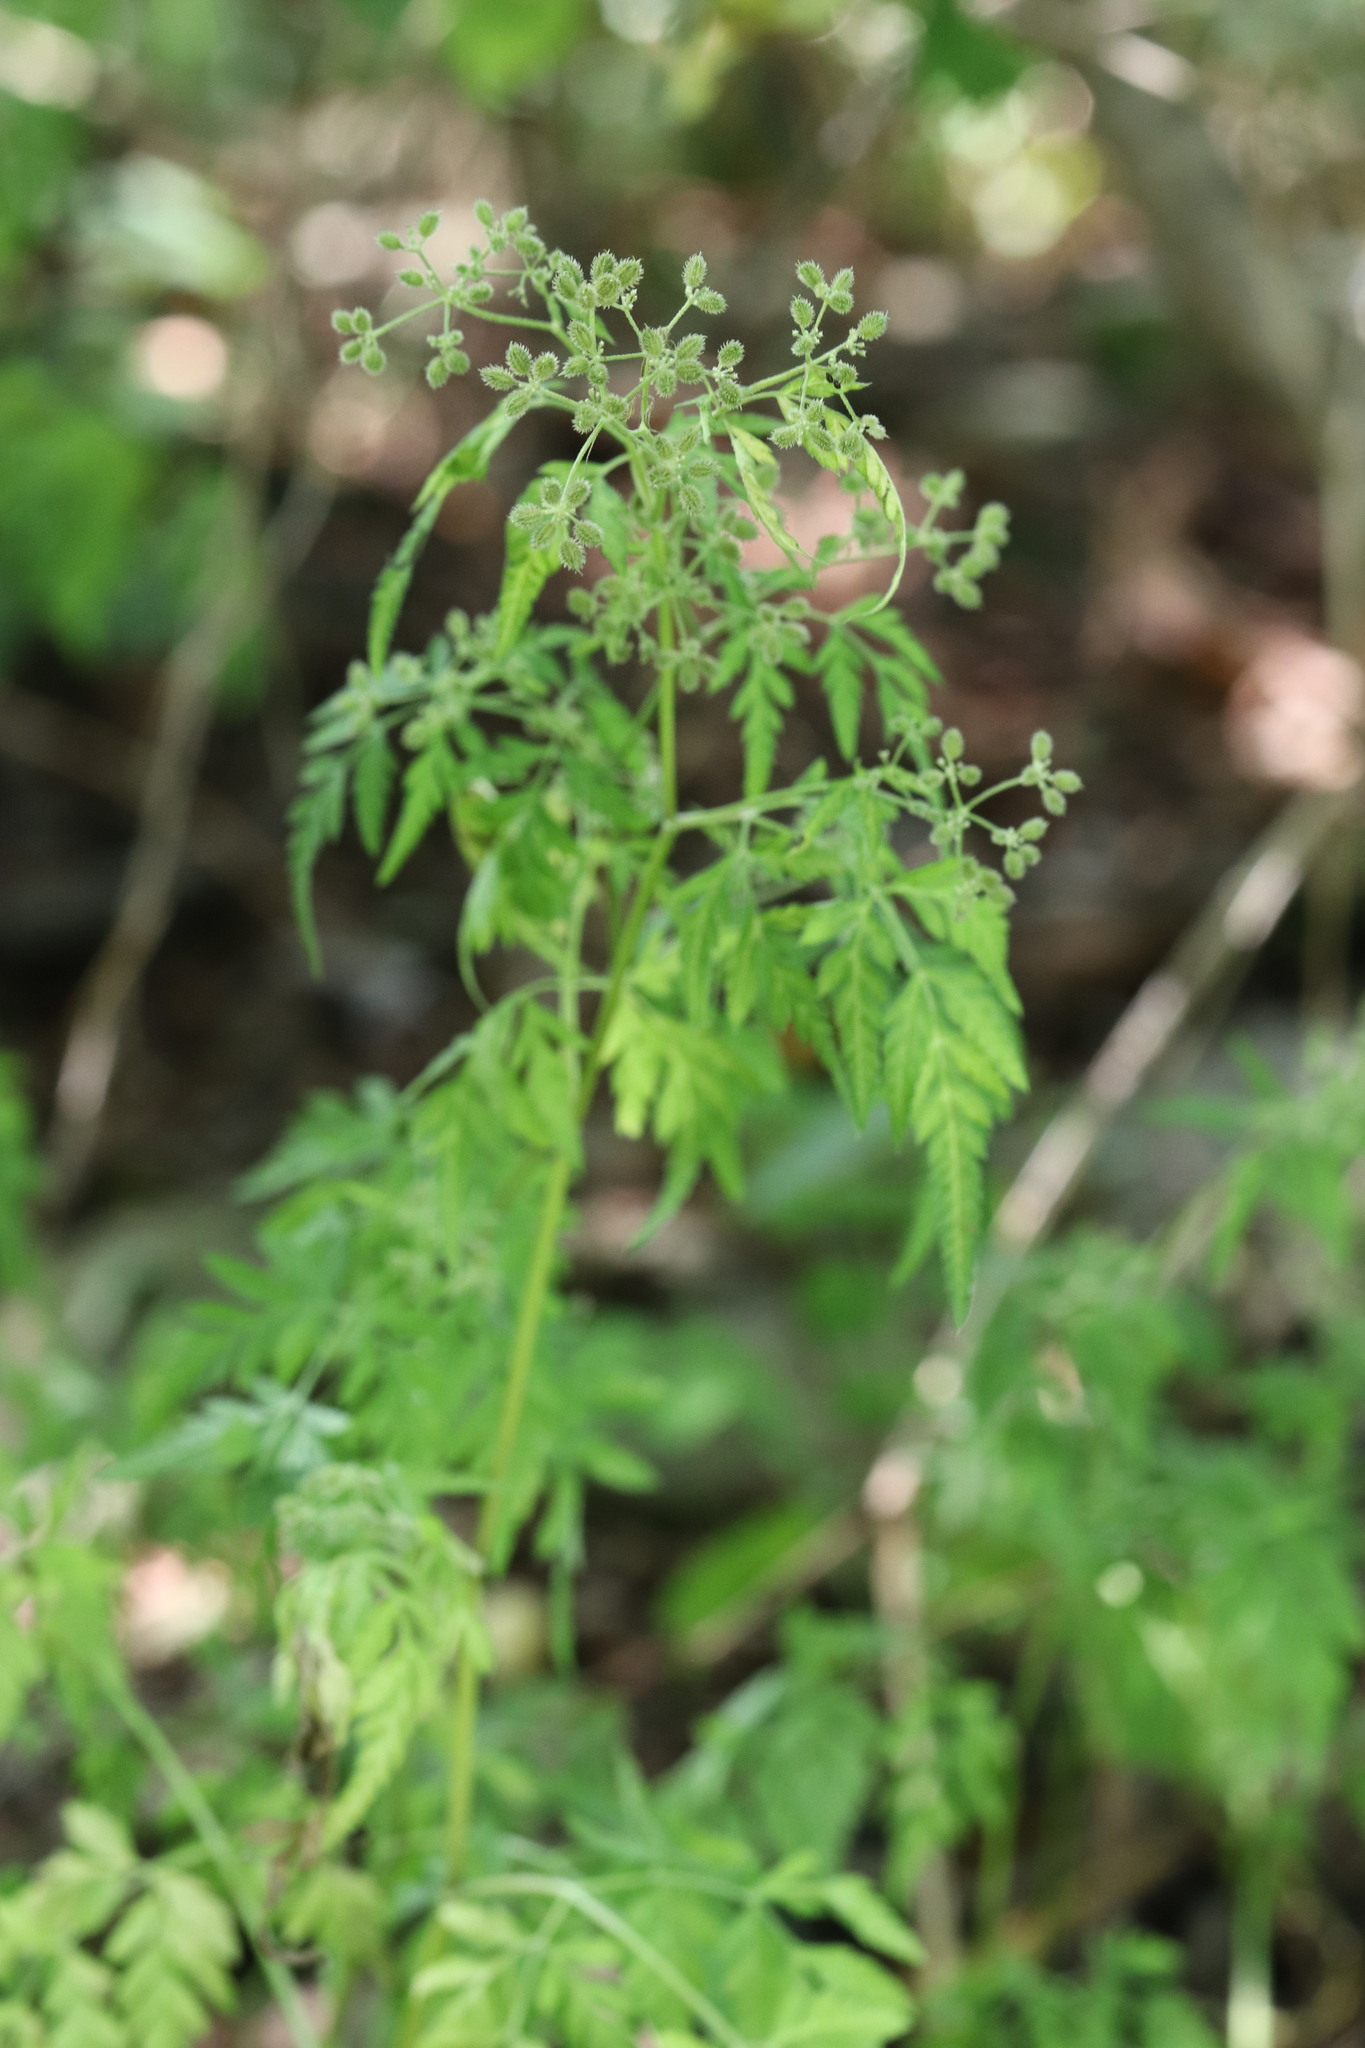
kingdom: Plantae
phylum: Tracheophyta
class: Magnoliopsida
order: Apiales
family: Apiaceae
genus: Torilis
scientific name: Torilis japonica
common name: Upright hedge-parsley
